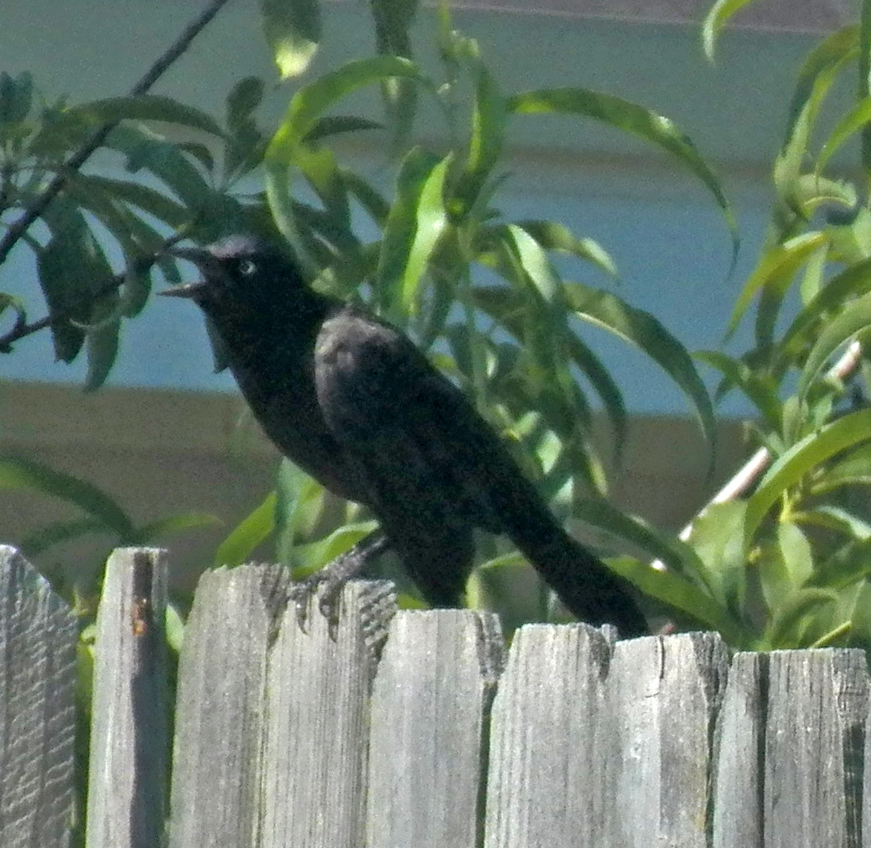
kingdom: Animalia
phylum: Chordata
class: Aves
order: Passeriformes
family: Icteridae
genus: Quiscalus
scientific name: Quiscalus mexicanus
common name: Great-tailed grackle
